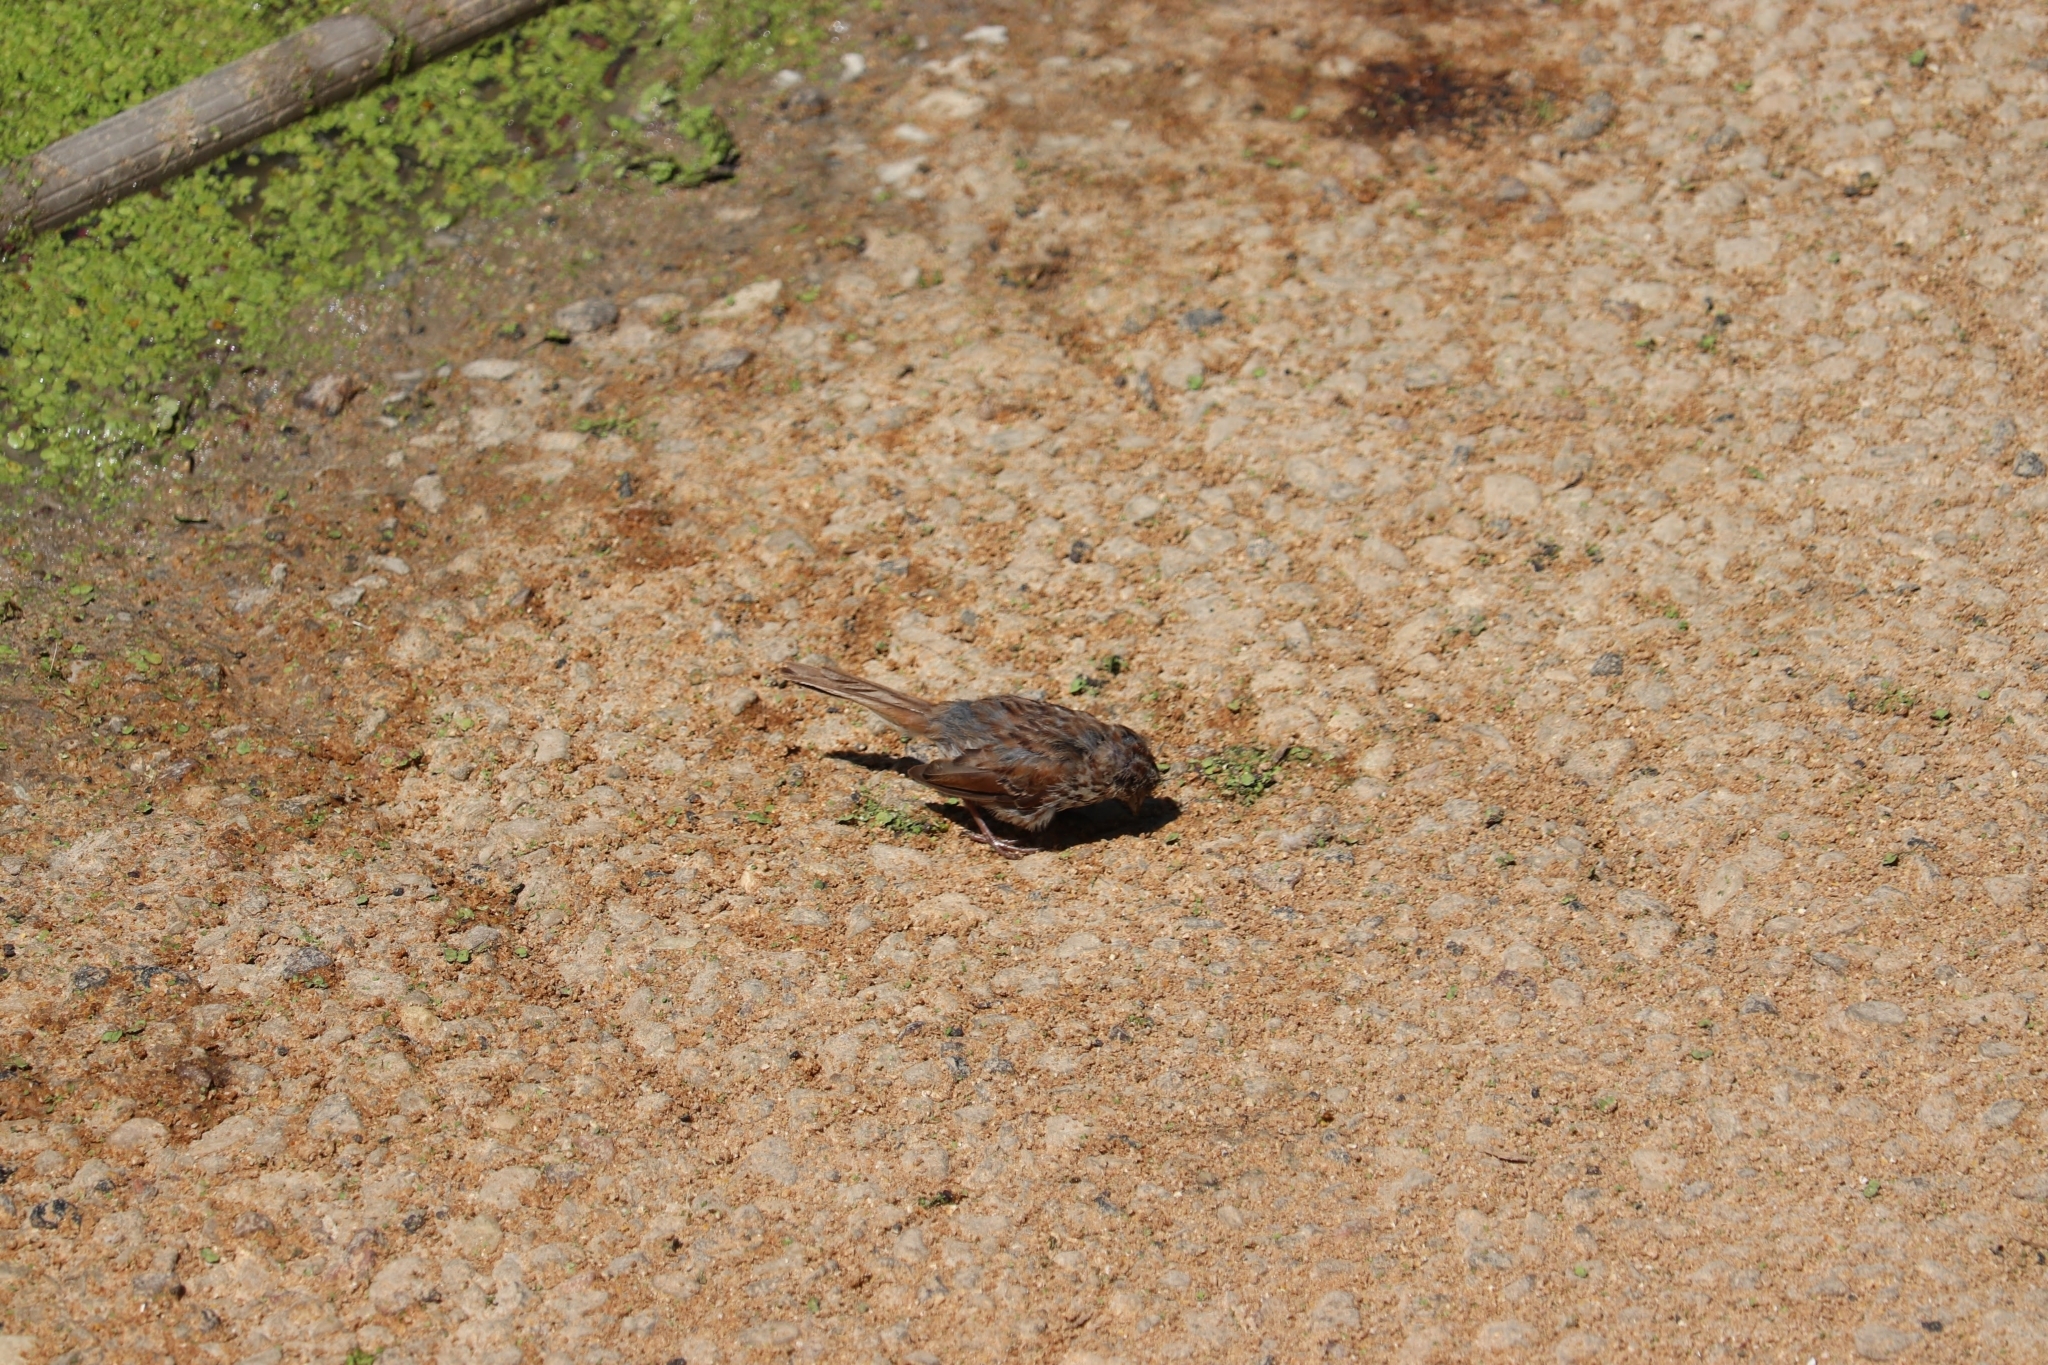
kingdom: Animalia
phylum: Chordata
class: Aves
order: Passeriformes
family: Passerellidae
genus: Melospiza
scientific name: Melospiza melodia
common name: Song sparrow
